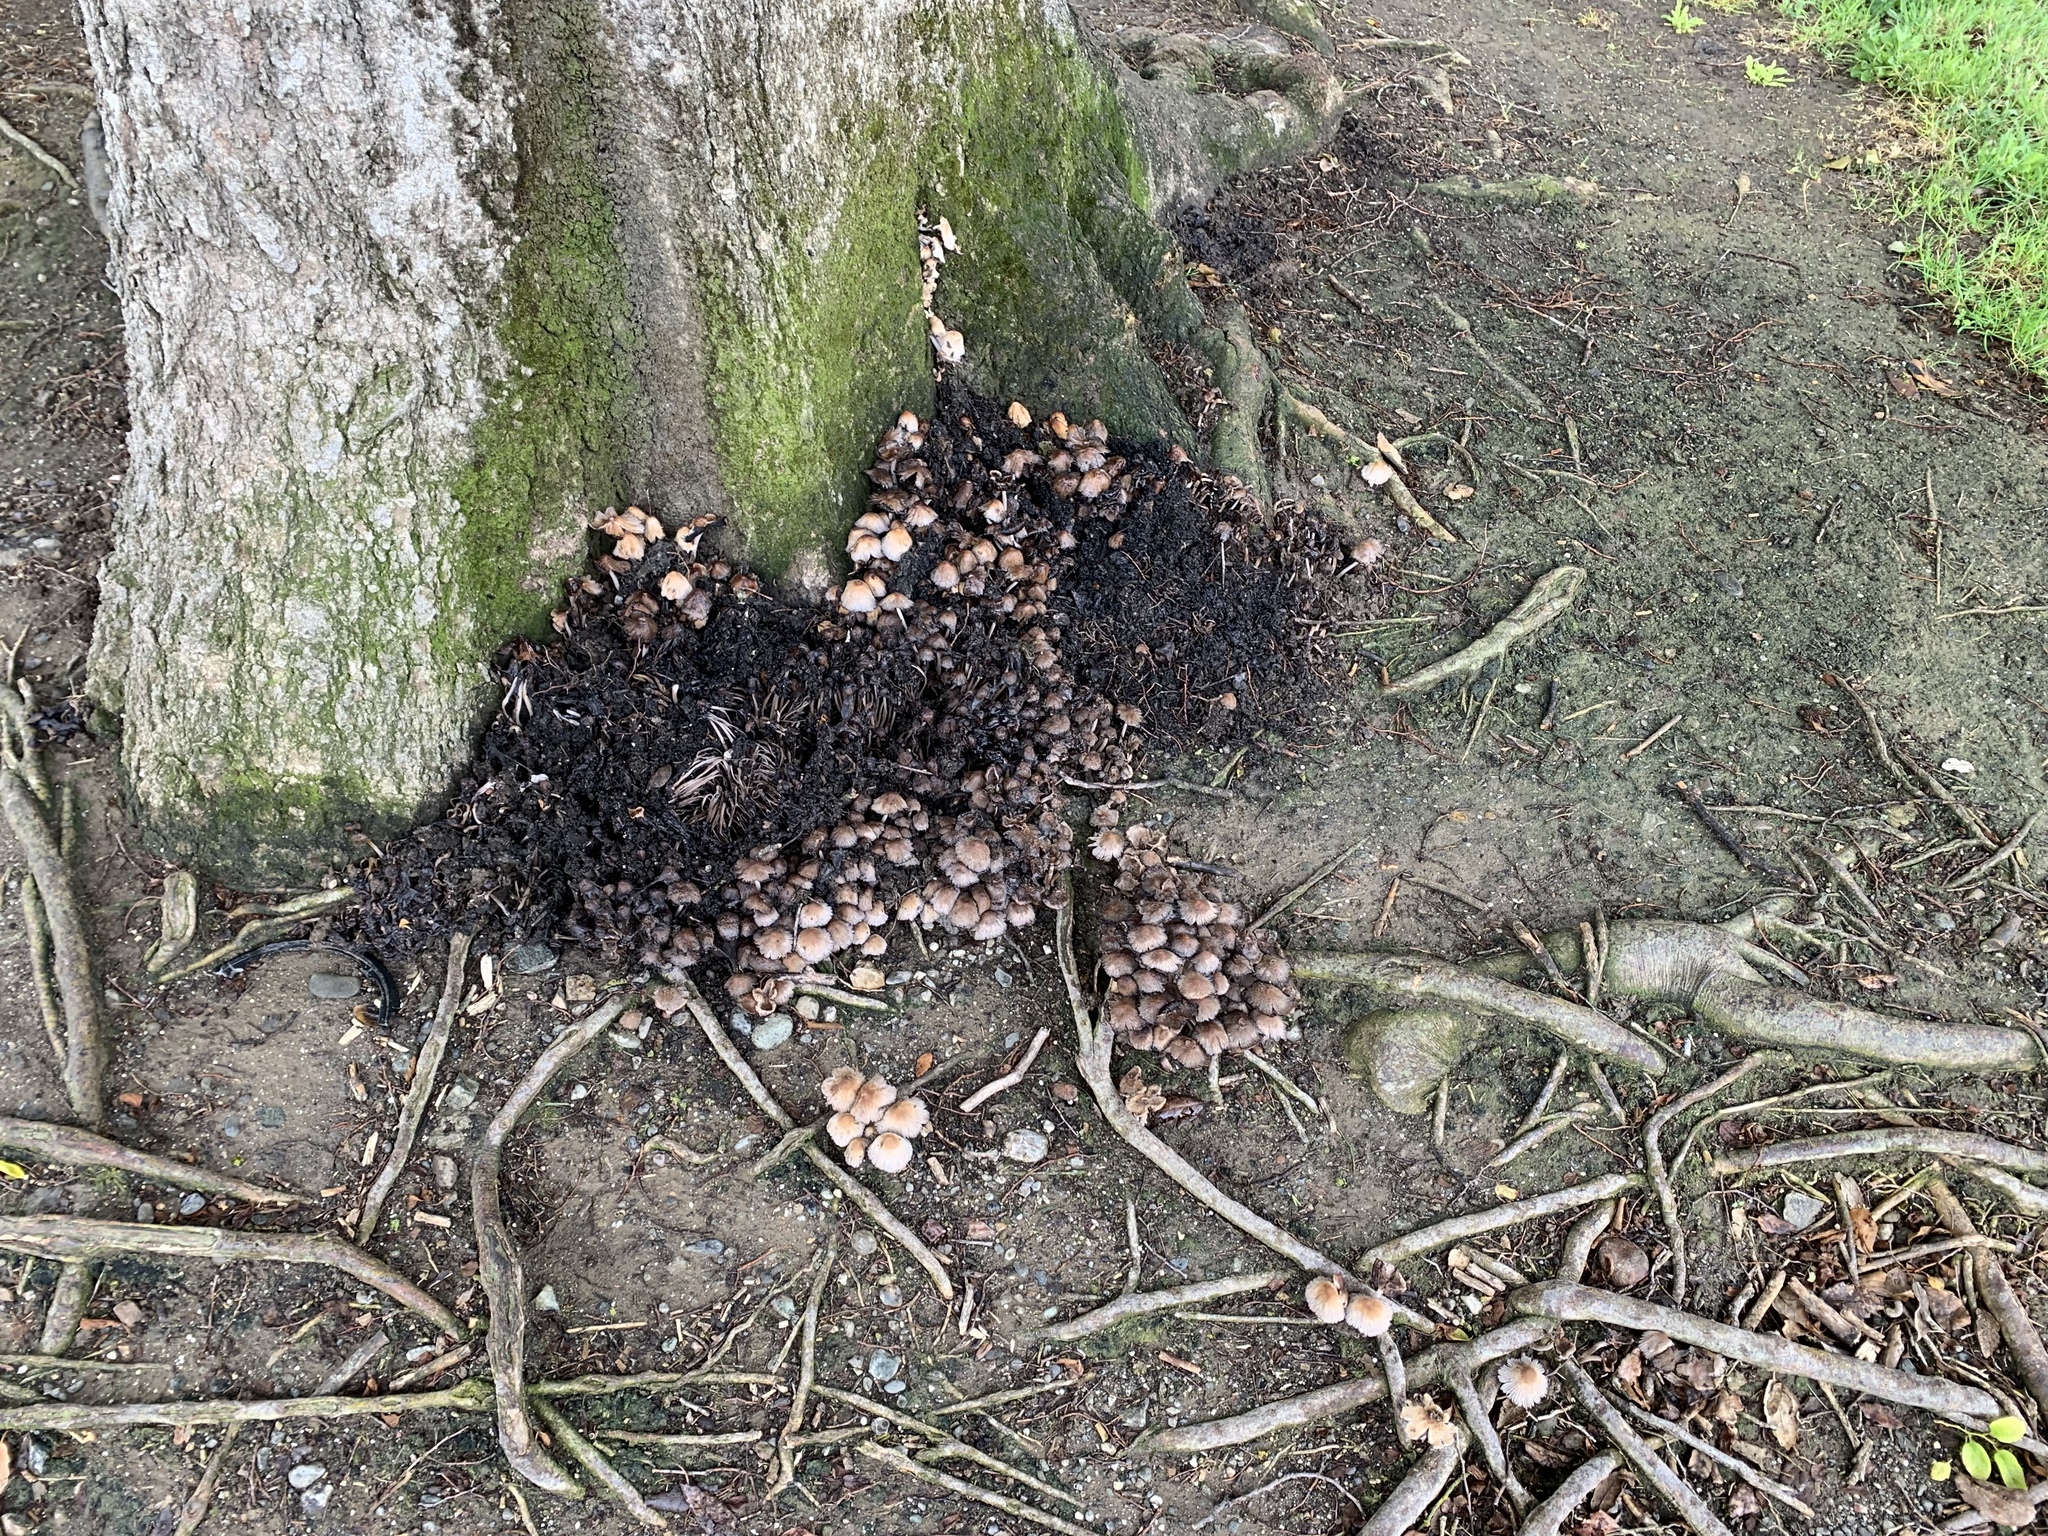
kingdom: Fungi
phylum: Basidiomycota
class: Agaricomycetes
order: Agaricales
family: Psathyrellaceae
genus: Coprinellus
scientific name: Coprinellus micaceus
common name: Glistening ink-cap
